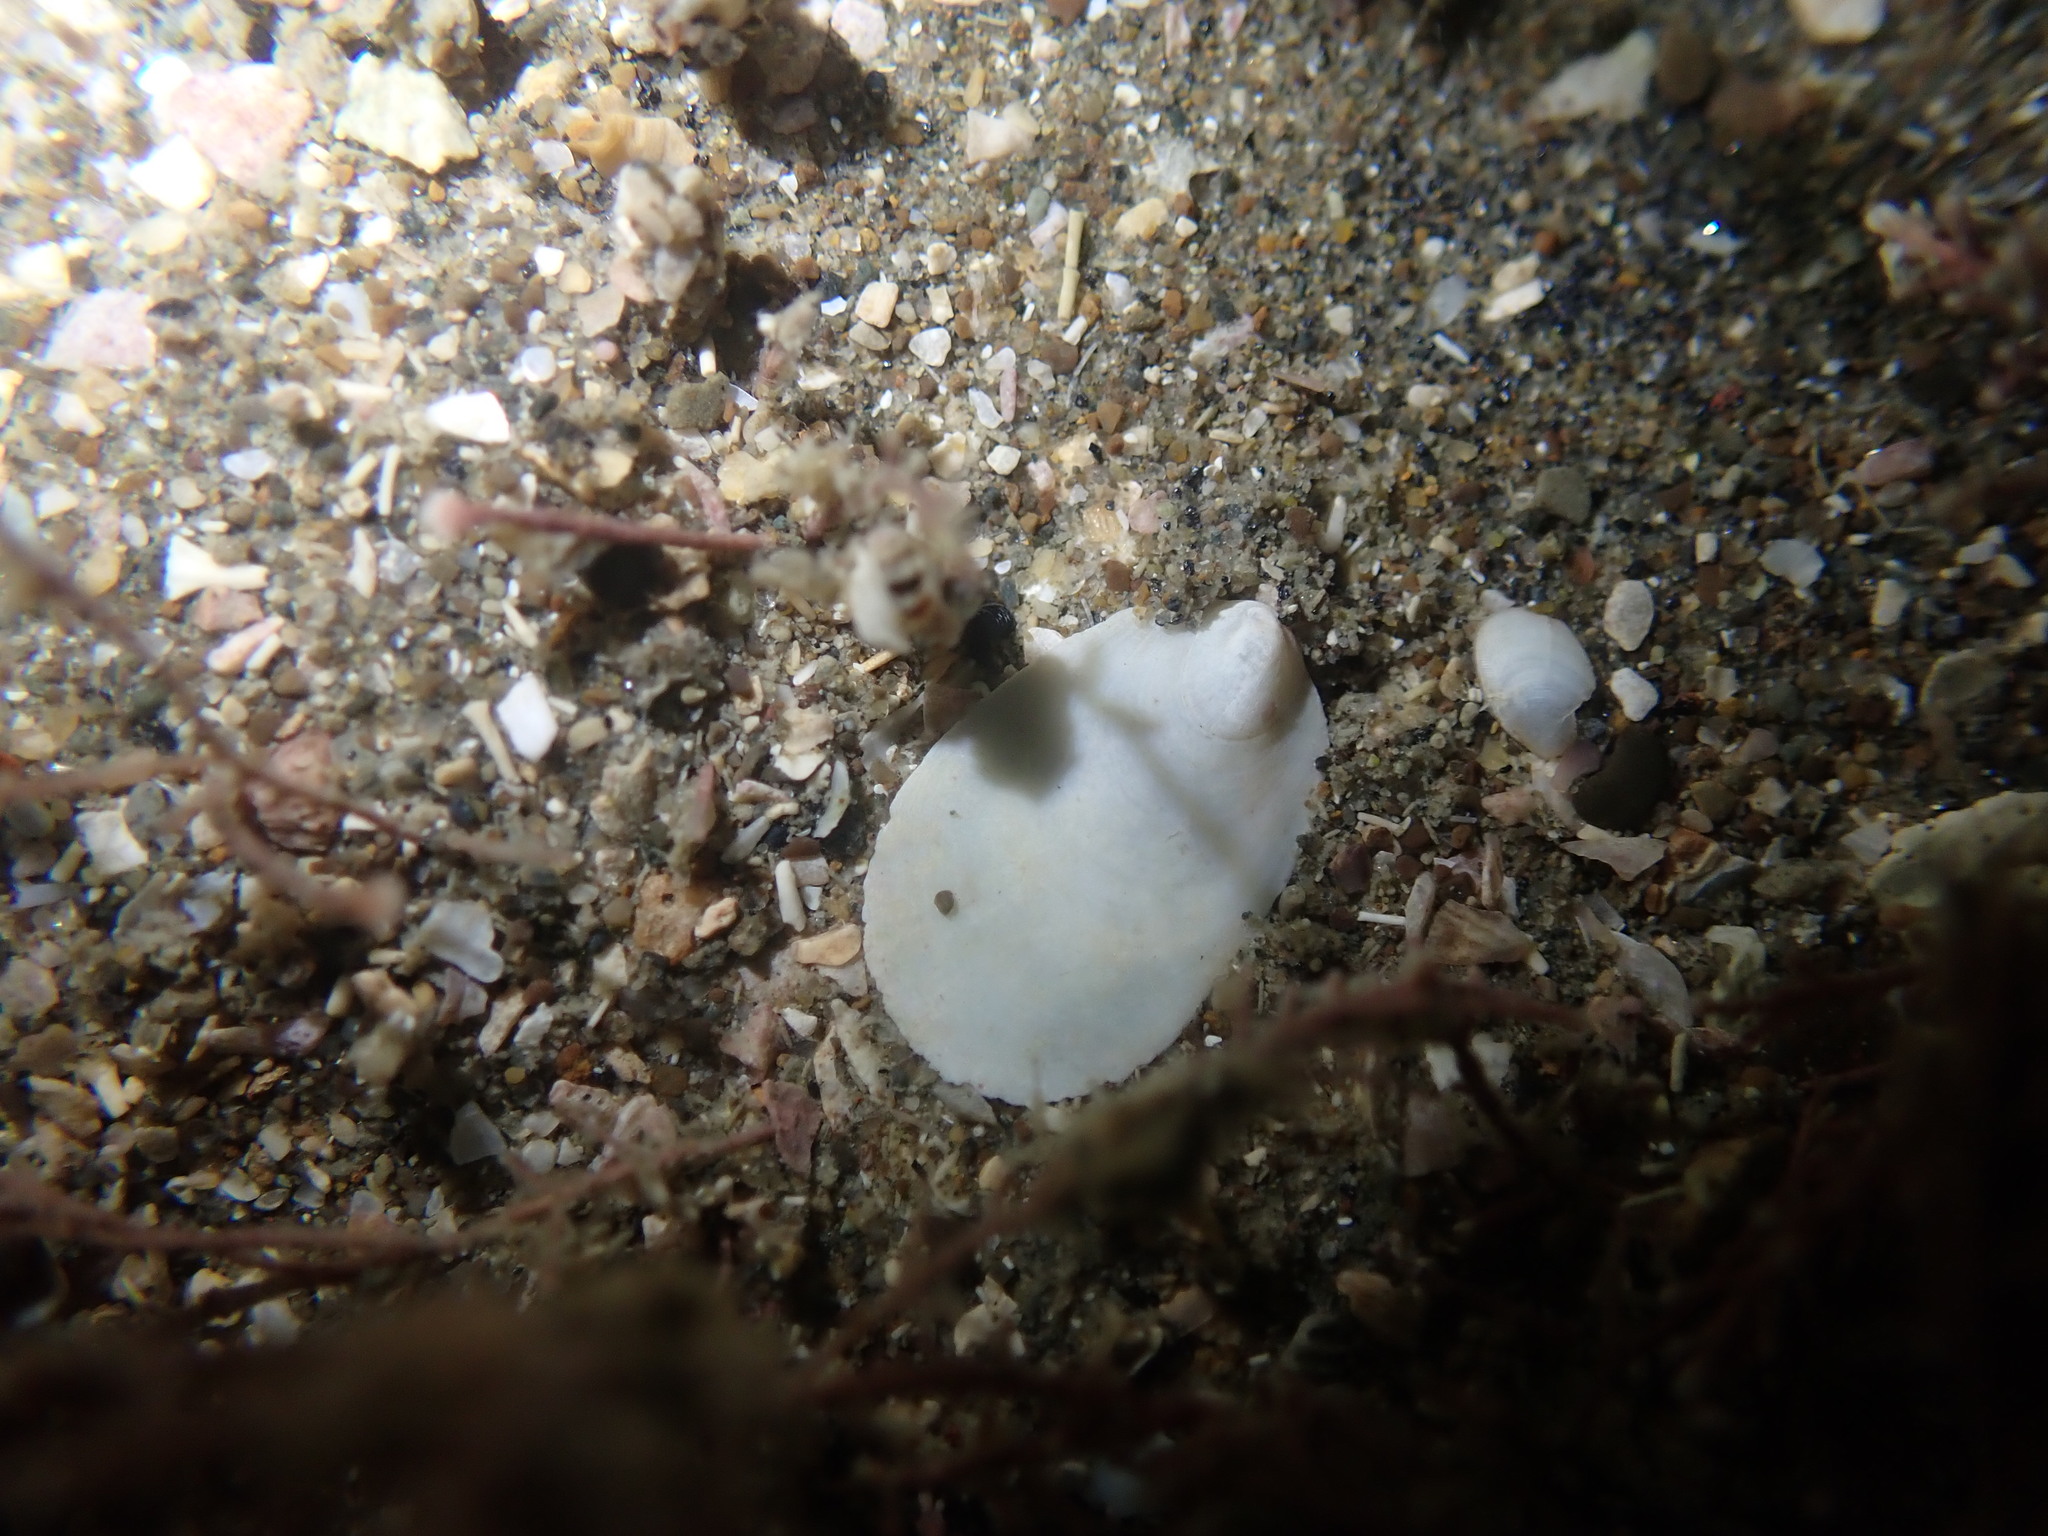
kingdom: Animalia
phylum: Mollusca
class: Gastropoda
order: Littorinimorpha
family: Calyptraeidae
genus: Maoricrypta
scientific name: Maoricrypta sodalis
